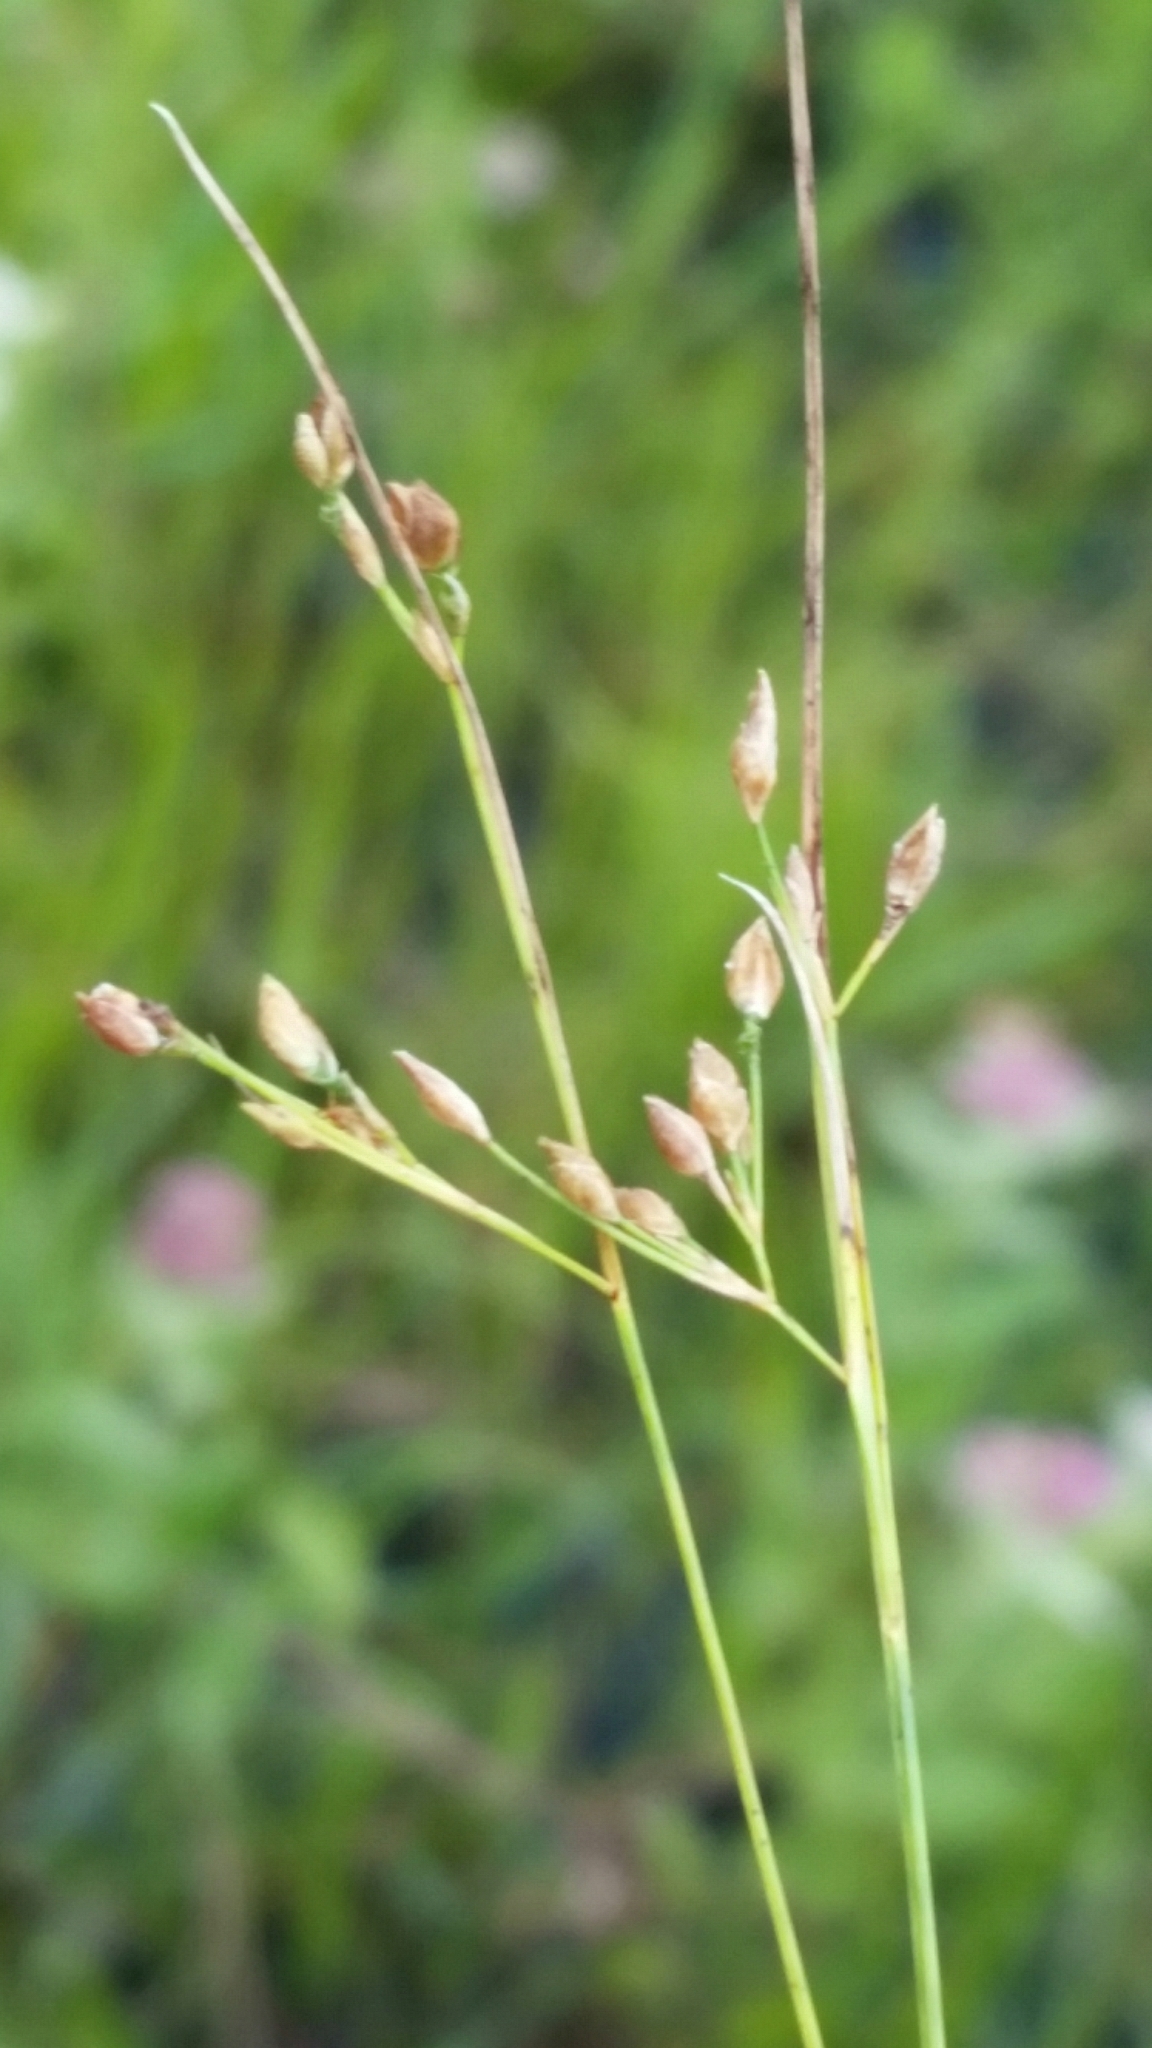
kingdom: Plantae
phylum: Tracheophyta
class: Liliopsida
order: Poales
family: Cyperaceae
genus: Rhynchospora
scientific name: Rhynchospora rariflora
